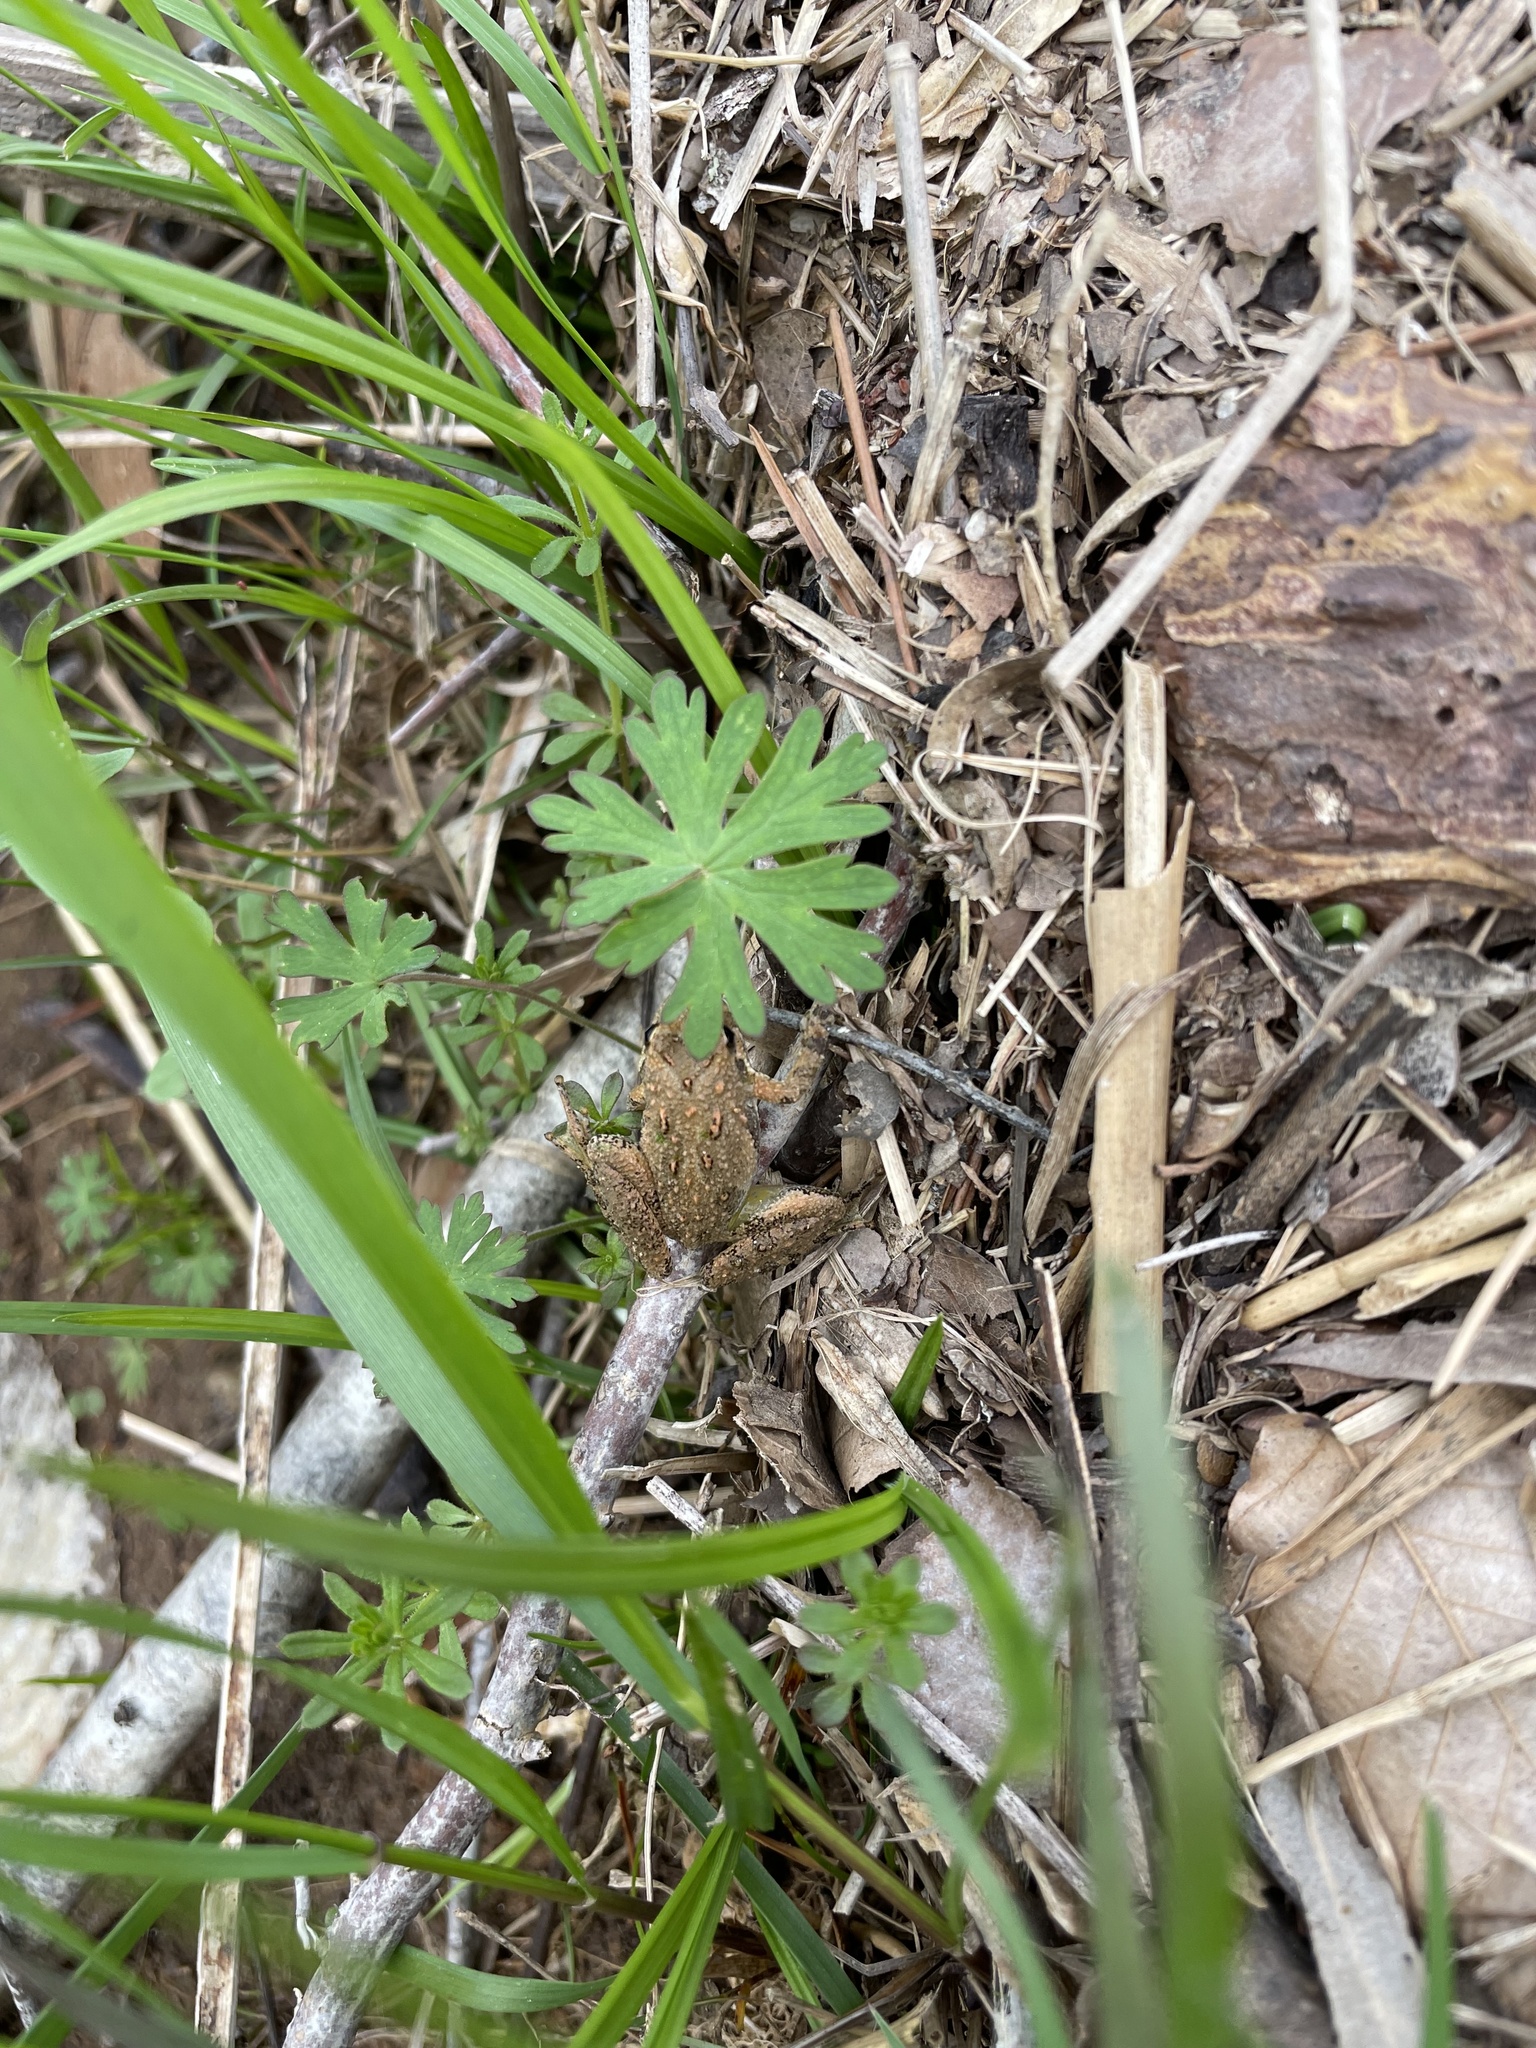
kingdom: Animalia
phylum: Chordata
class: Amphibia
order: Anura
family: Hylidae
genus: Acris
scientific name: Acris crepitans
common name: Northern cricket frog
